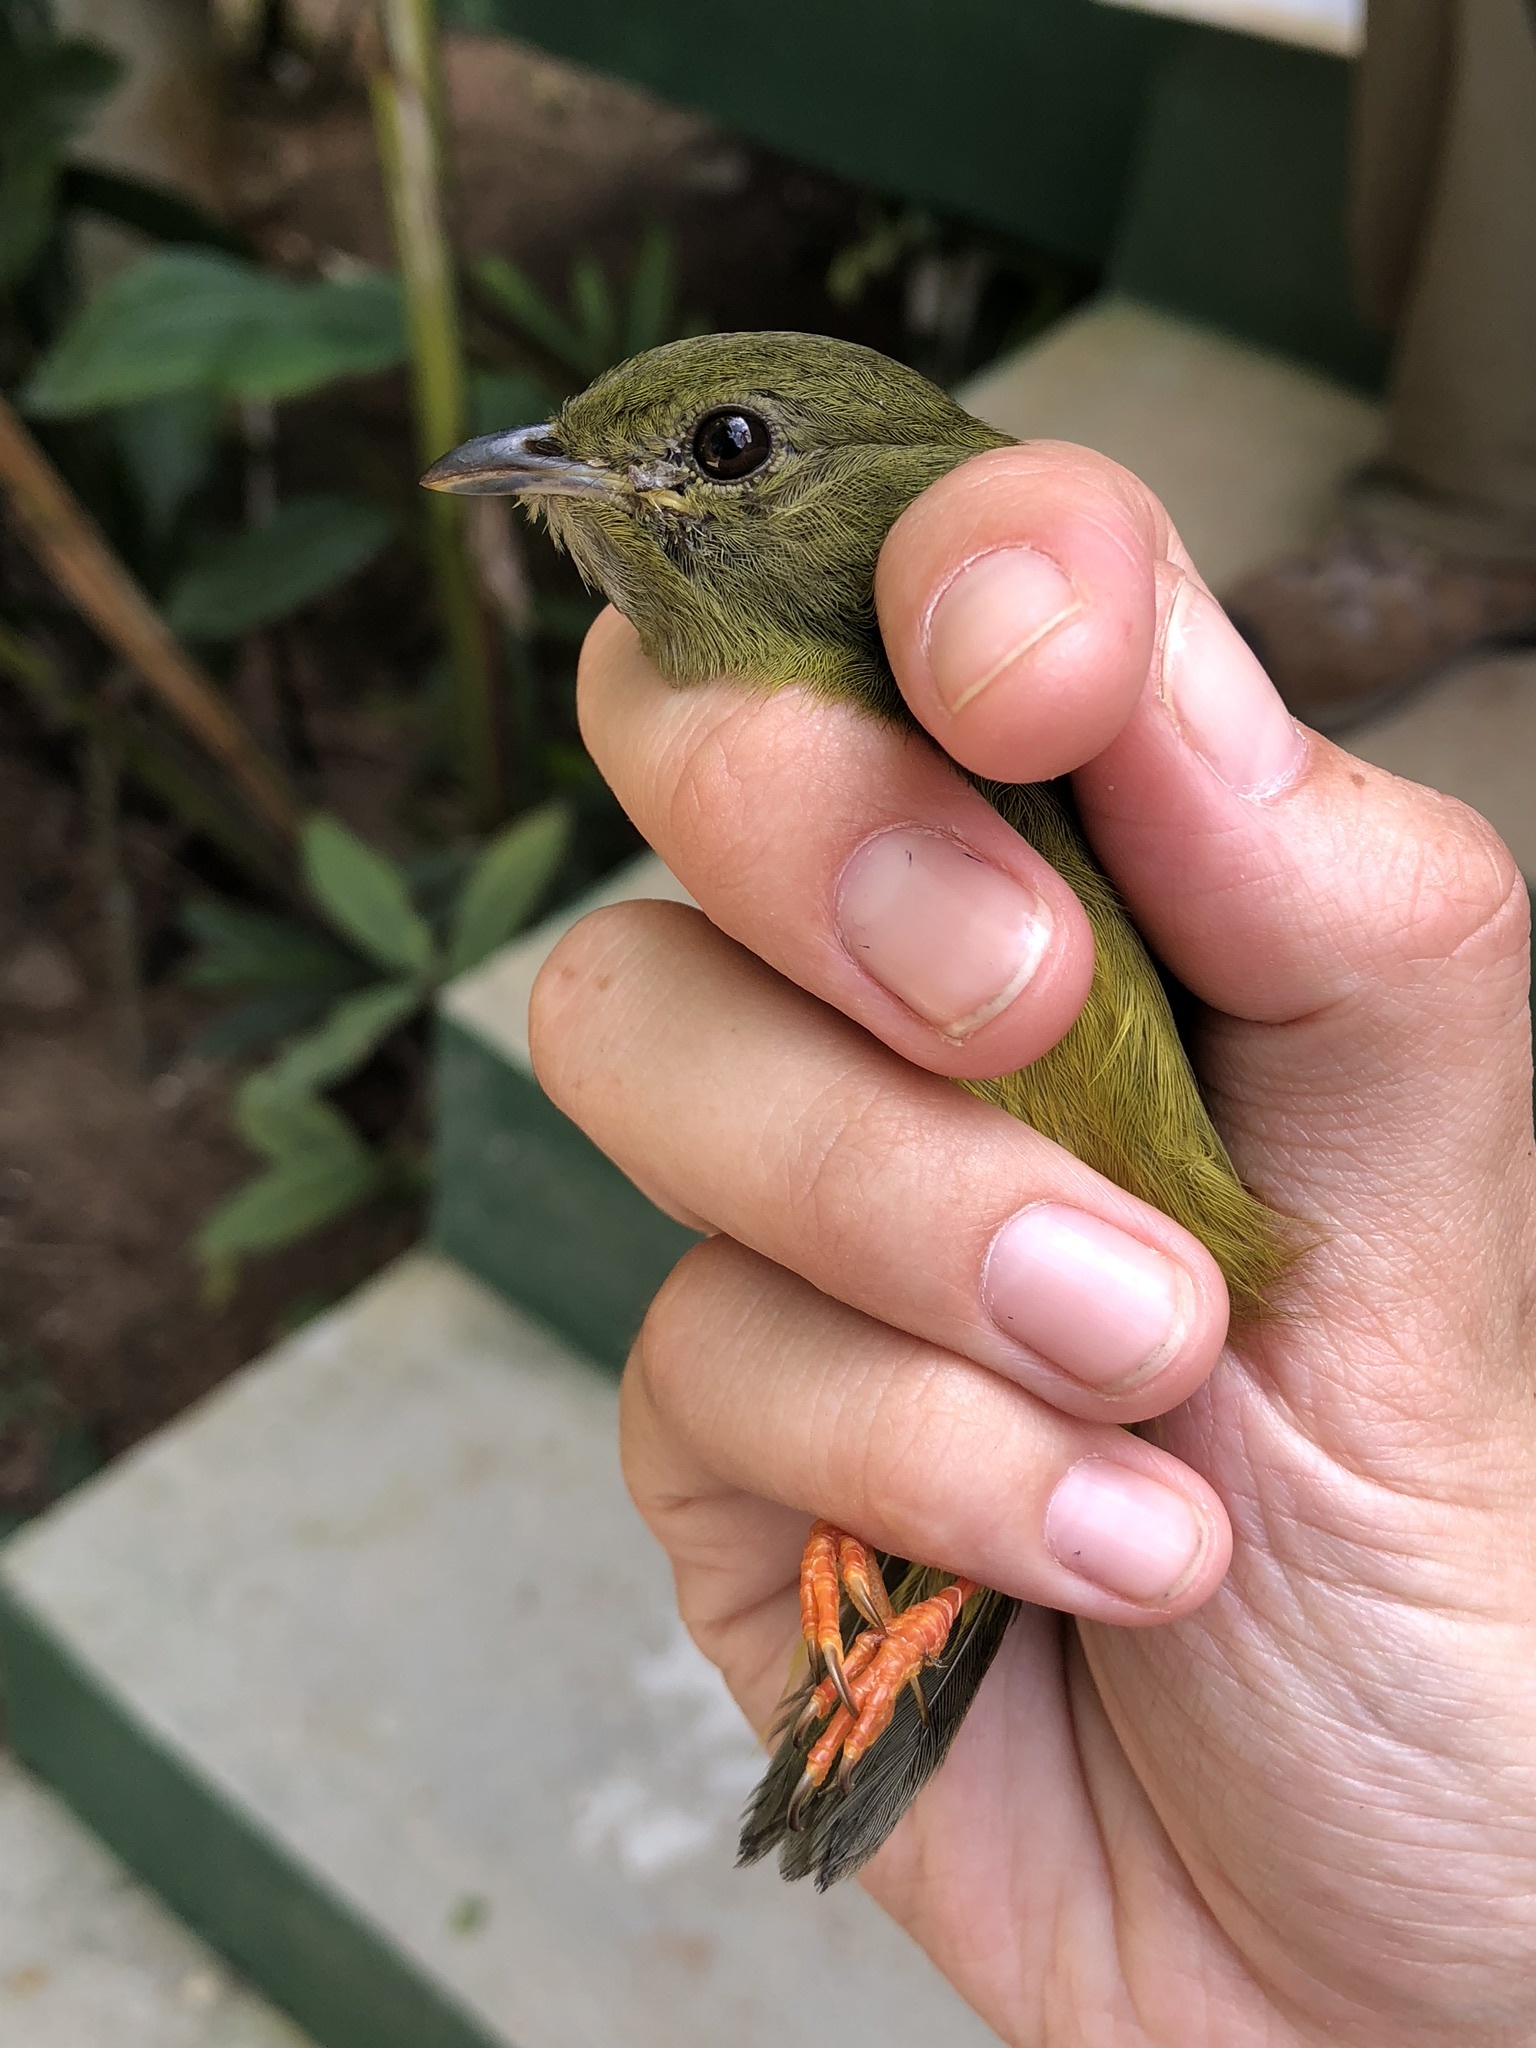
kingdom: Animalia
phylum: Chordata
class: Aves
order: Passeriformes
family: Pipridae
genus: Manacus
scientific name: Manacus candei
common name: White-collared manakin
